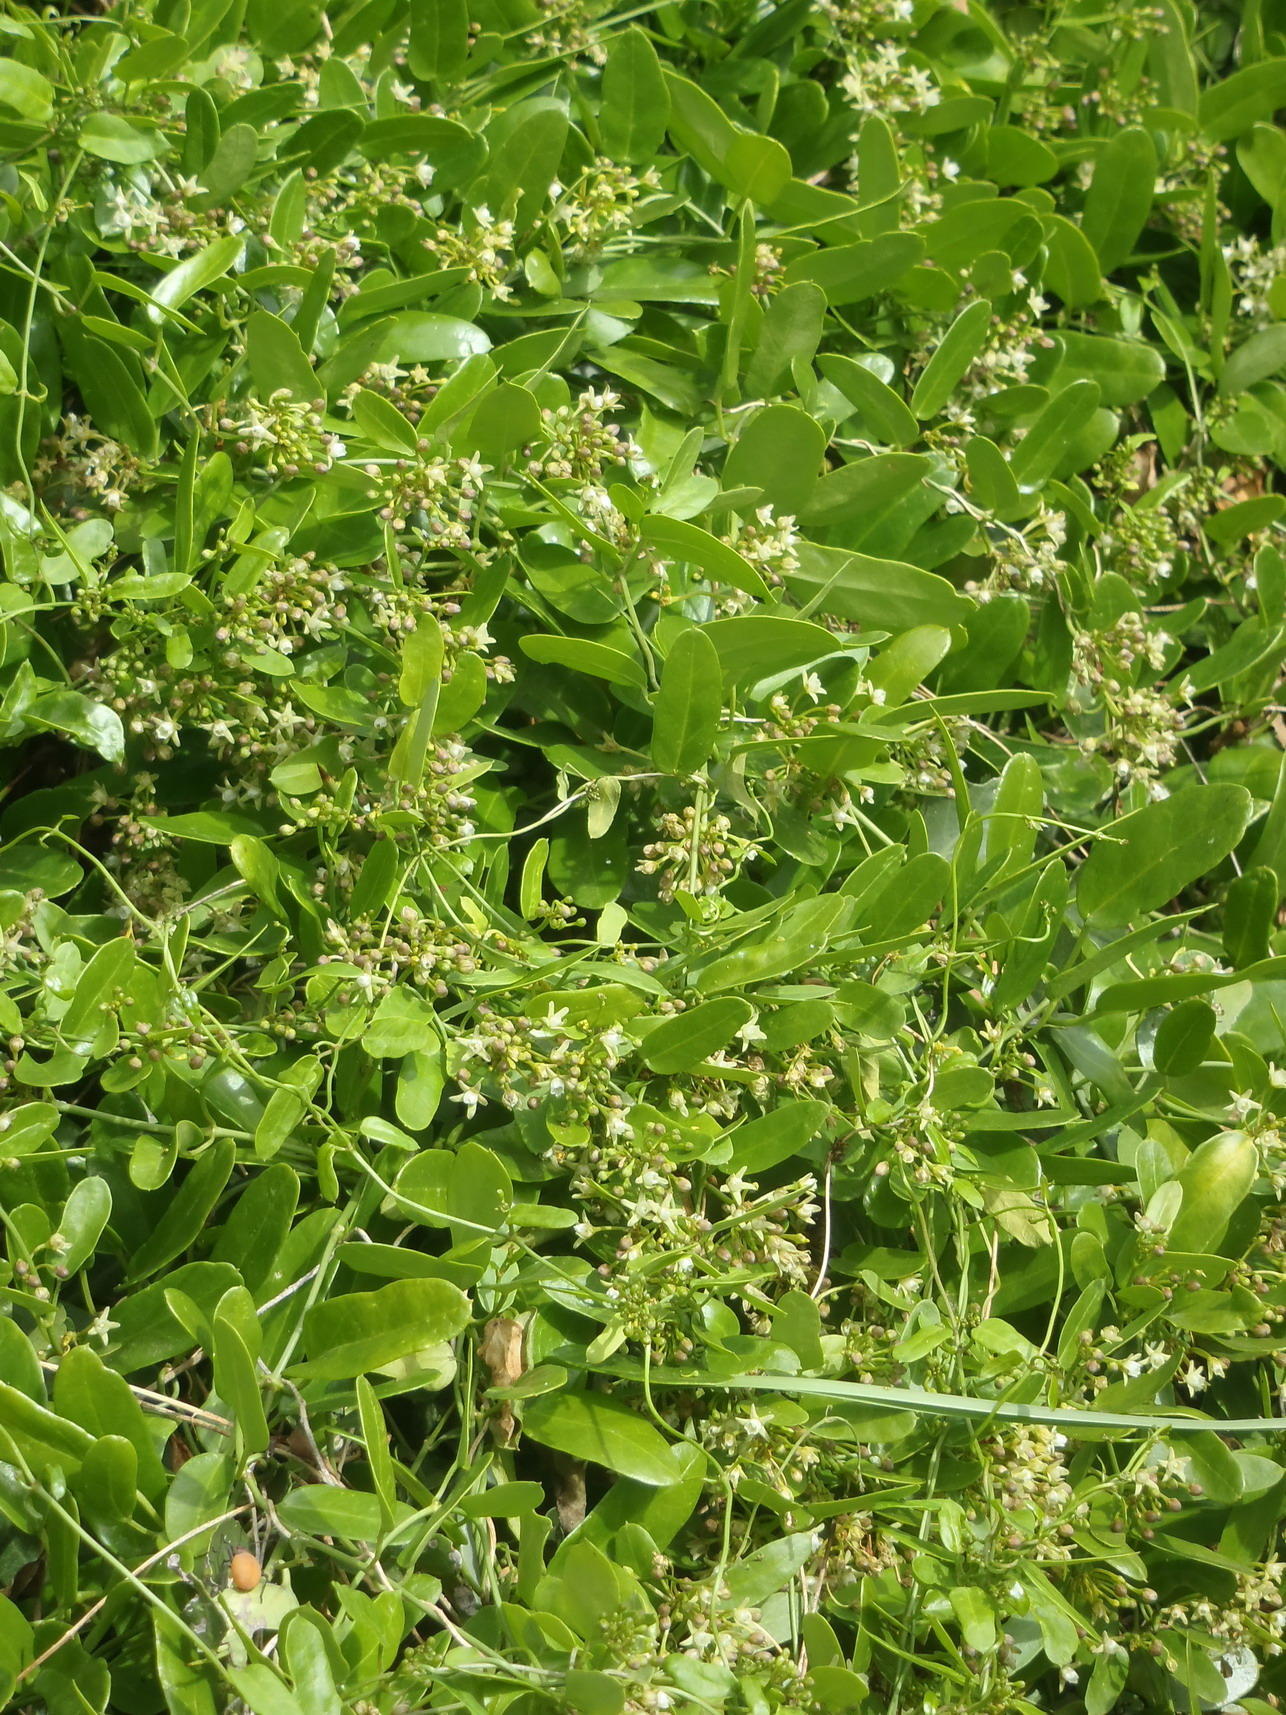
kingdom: Plantae
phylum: Tracheophyta
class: Magnoliopsida
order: Gentianales
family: Apocynaceae
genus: Cynanchum
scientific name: Cynanchum ellipticum
